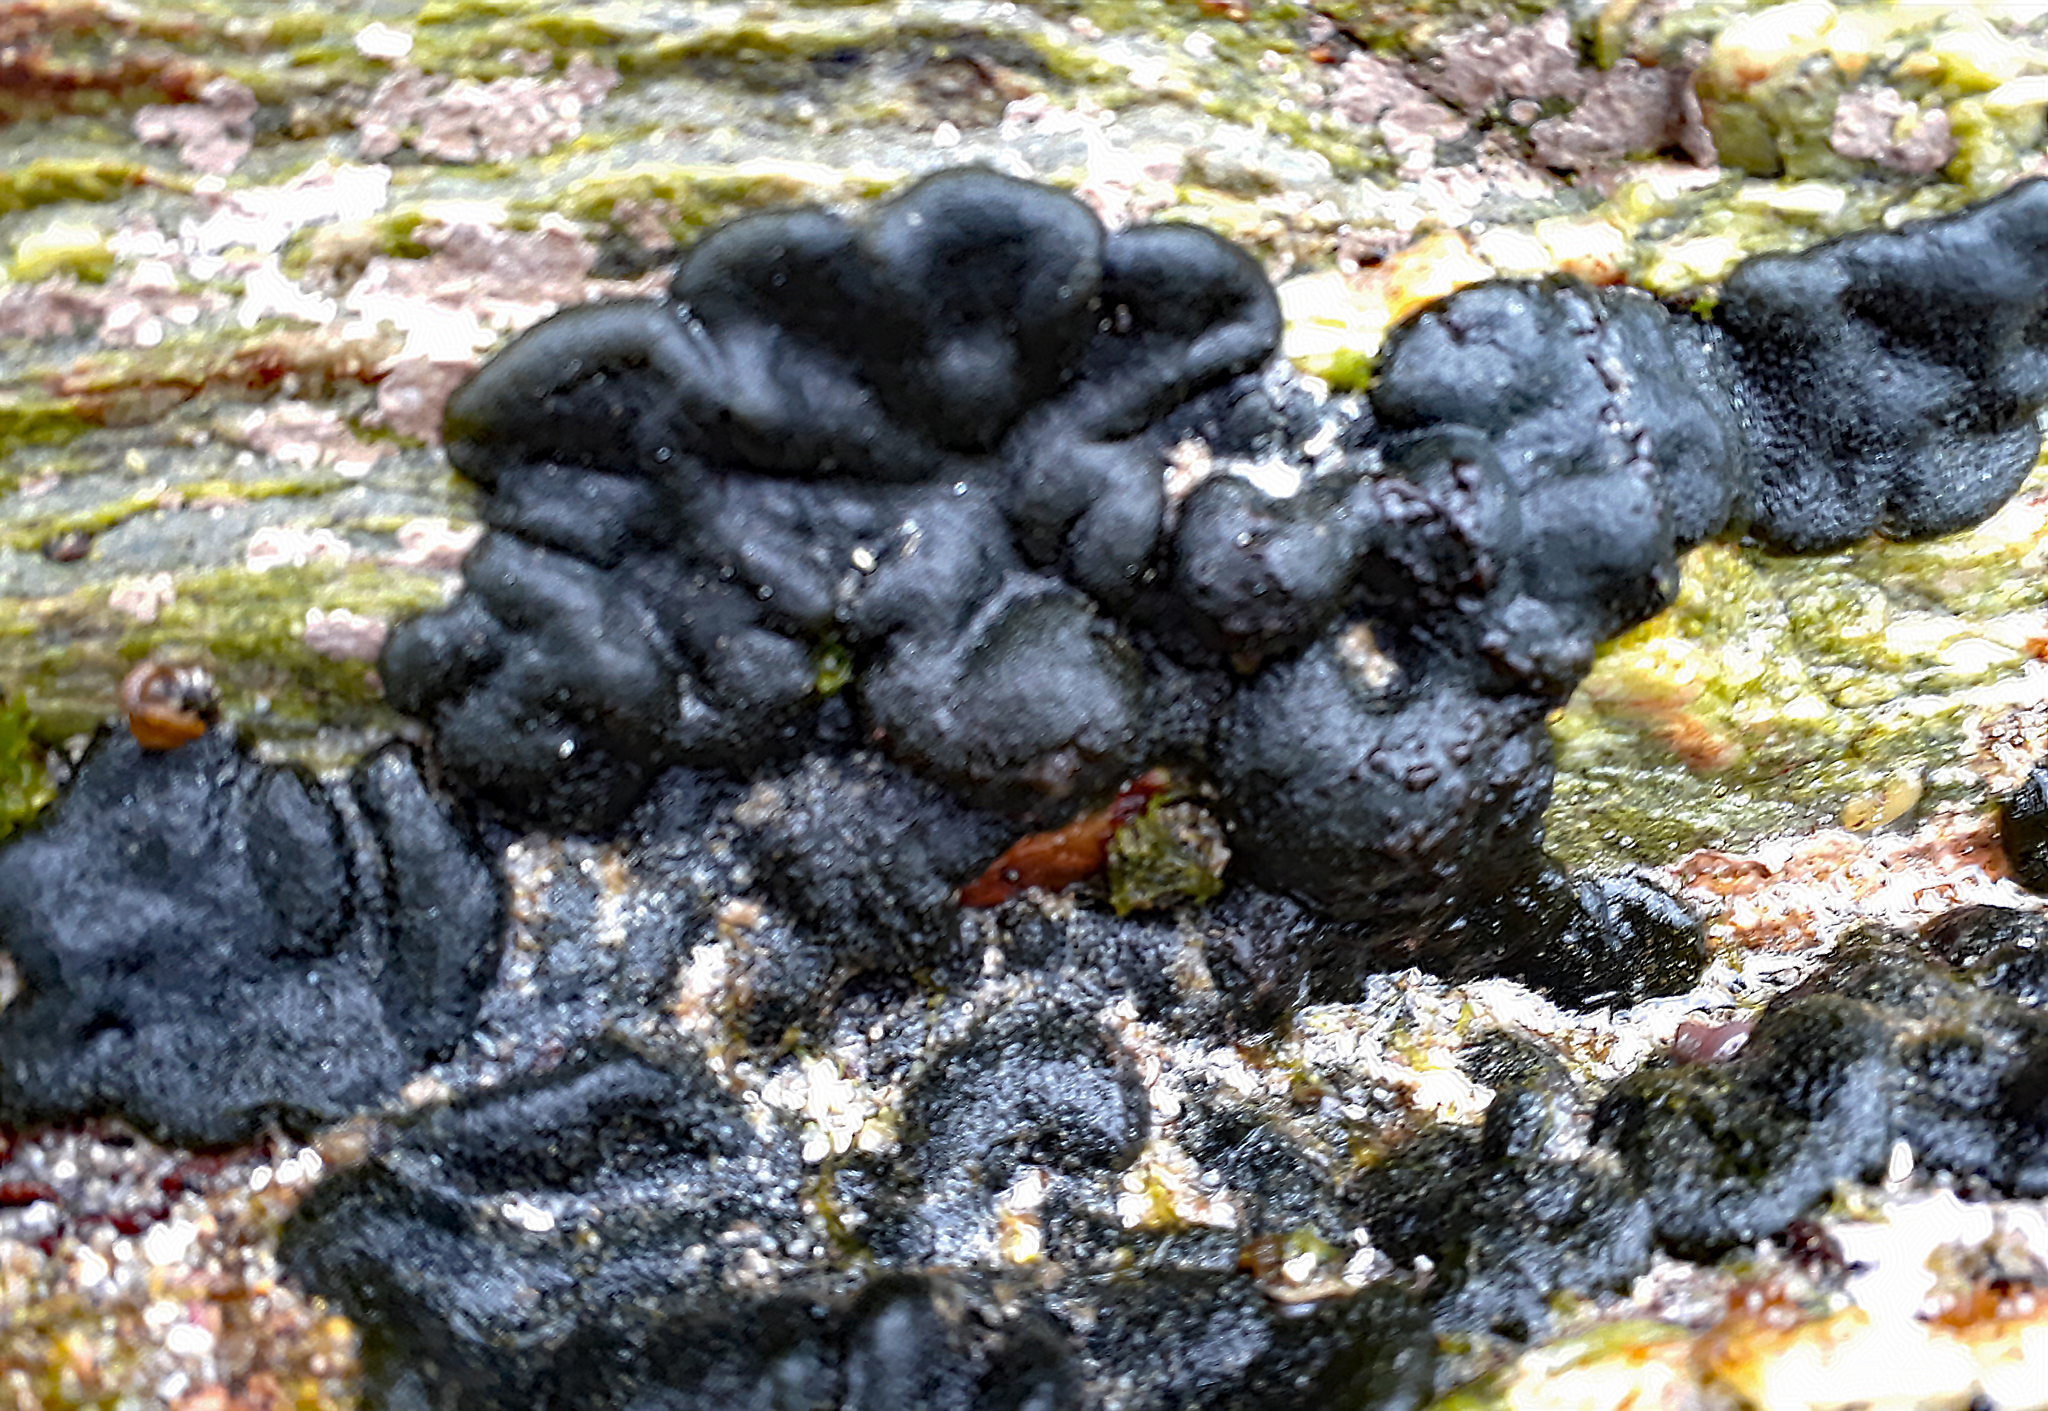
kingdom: Plantae
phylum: Chlorophyta
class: Ulvophyceae
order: Bryopsidales
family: Codiaceae
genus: Codium
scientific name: Codium convolutum
